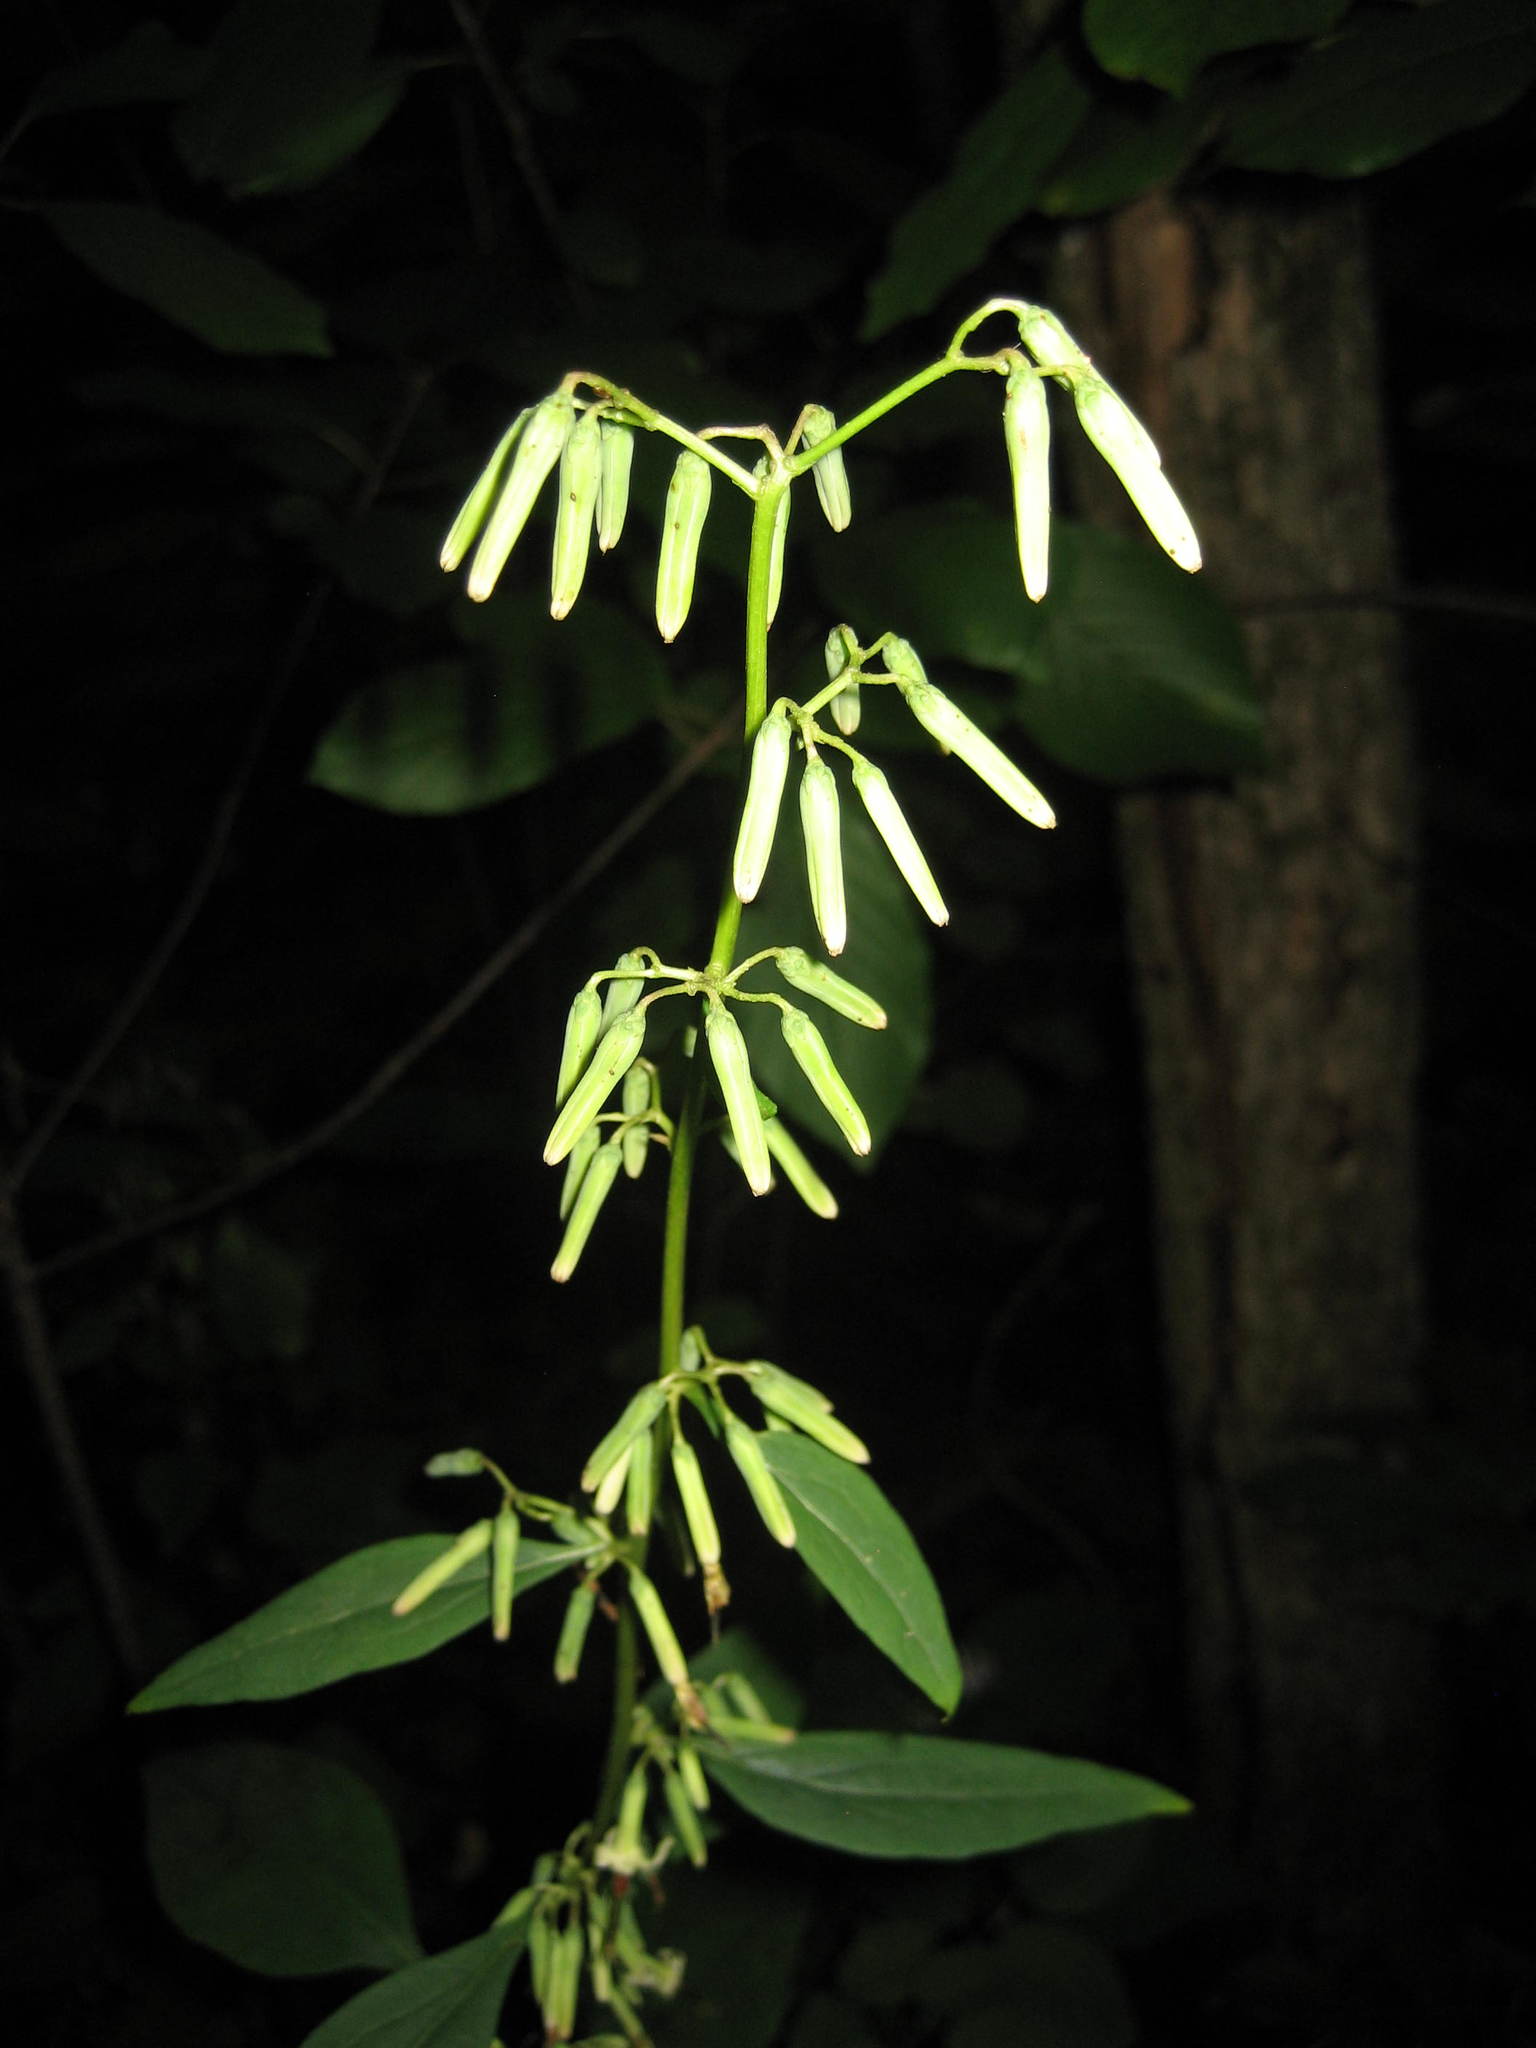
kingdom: Plantae
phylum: Tracheophyta
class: Magnoliopsida
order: Asterales
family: Asteraceae
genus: Nabalus
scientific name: Nabalus altissima
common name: Tall rattlesnakeroot
